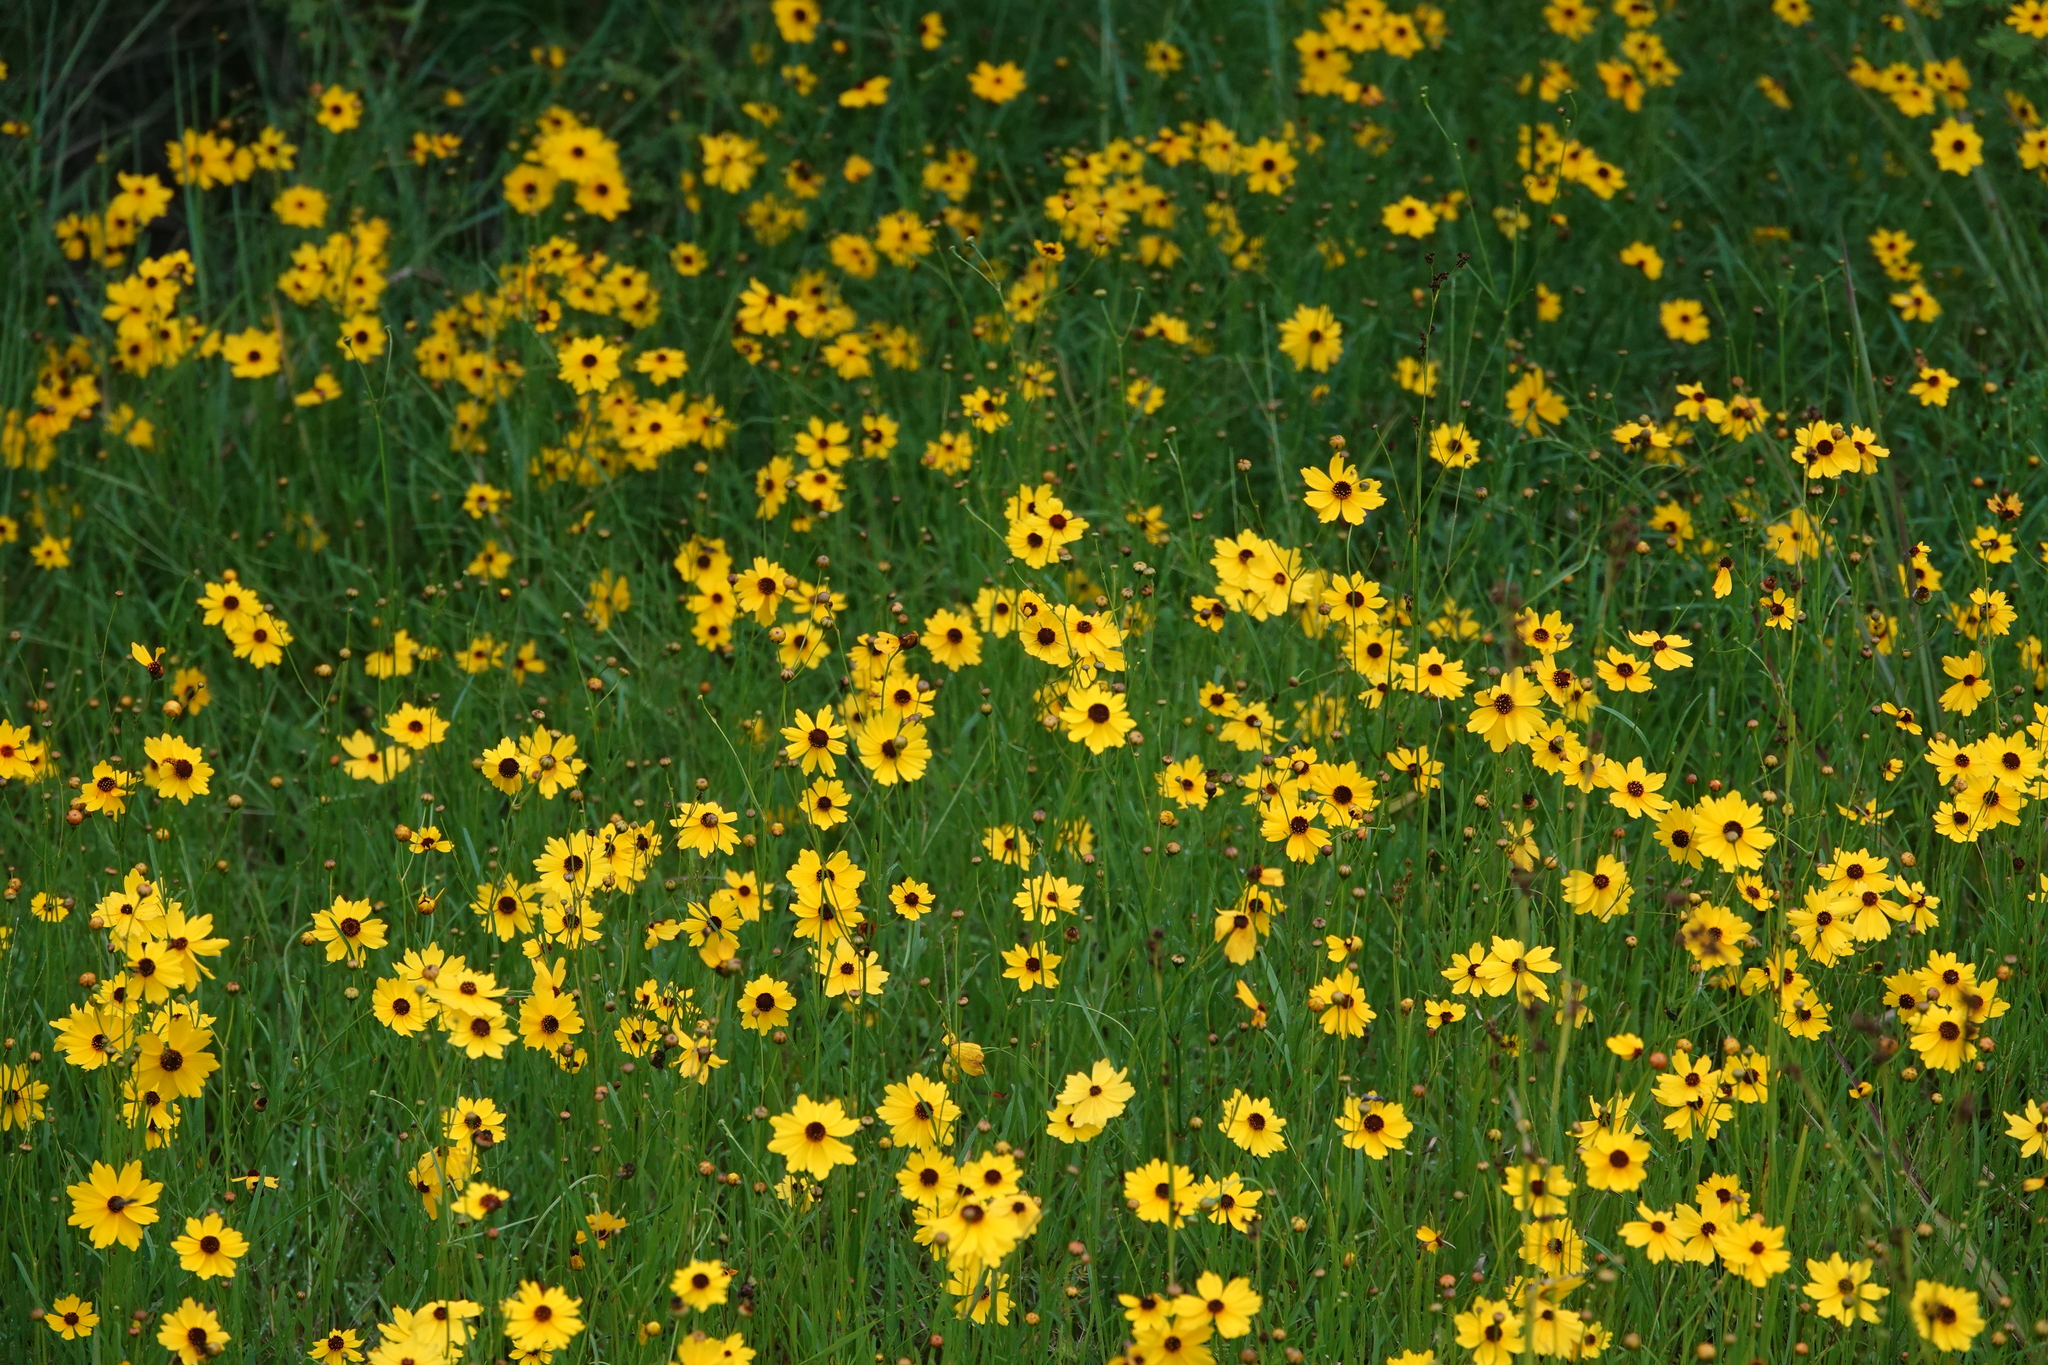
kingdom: Plantae
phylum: Tracheophyta
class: Magnoliopsida
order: Asterales
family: Asteraceae
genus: Coreopsis
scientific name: Coreopsis leavenworthii
